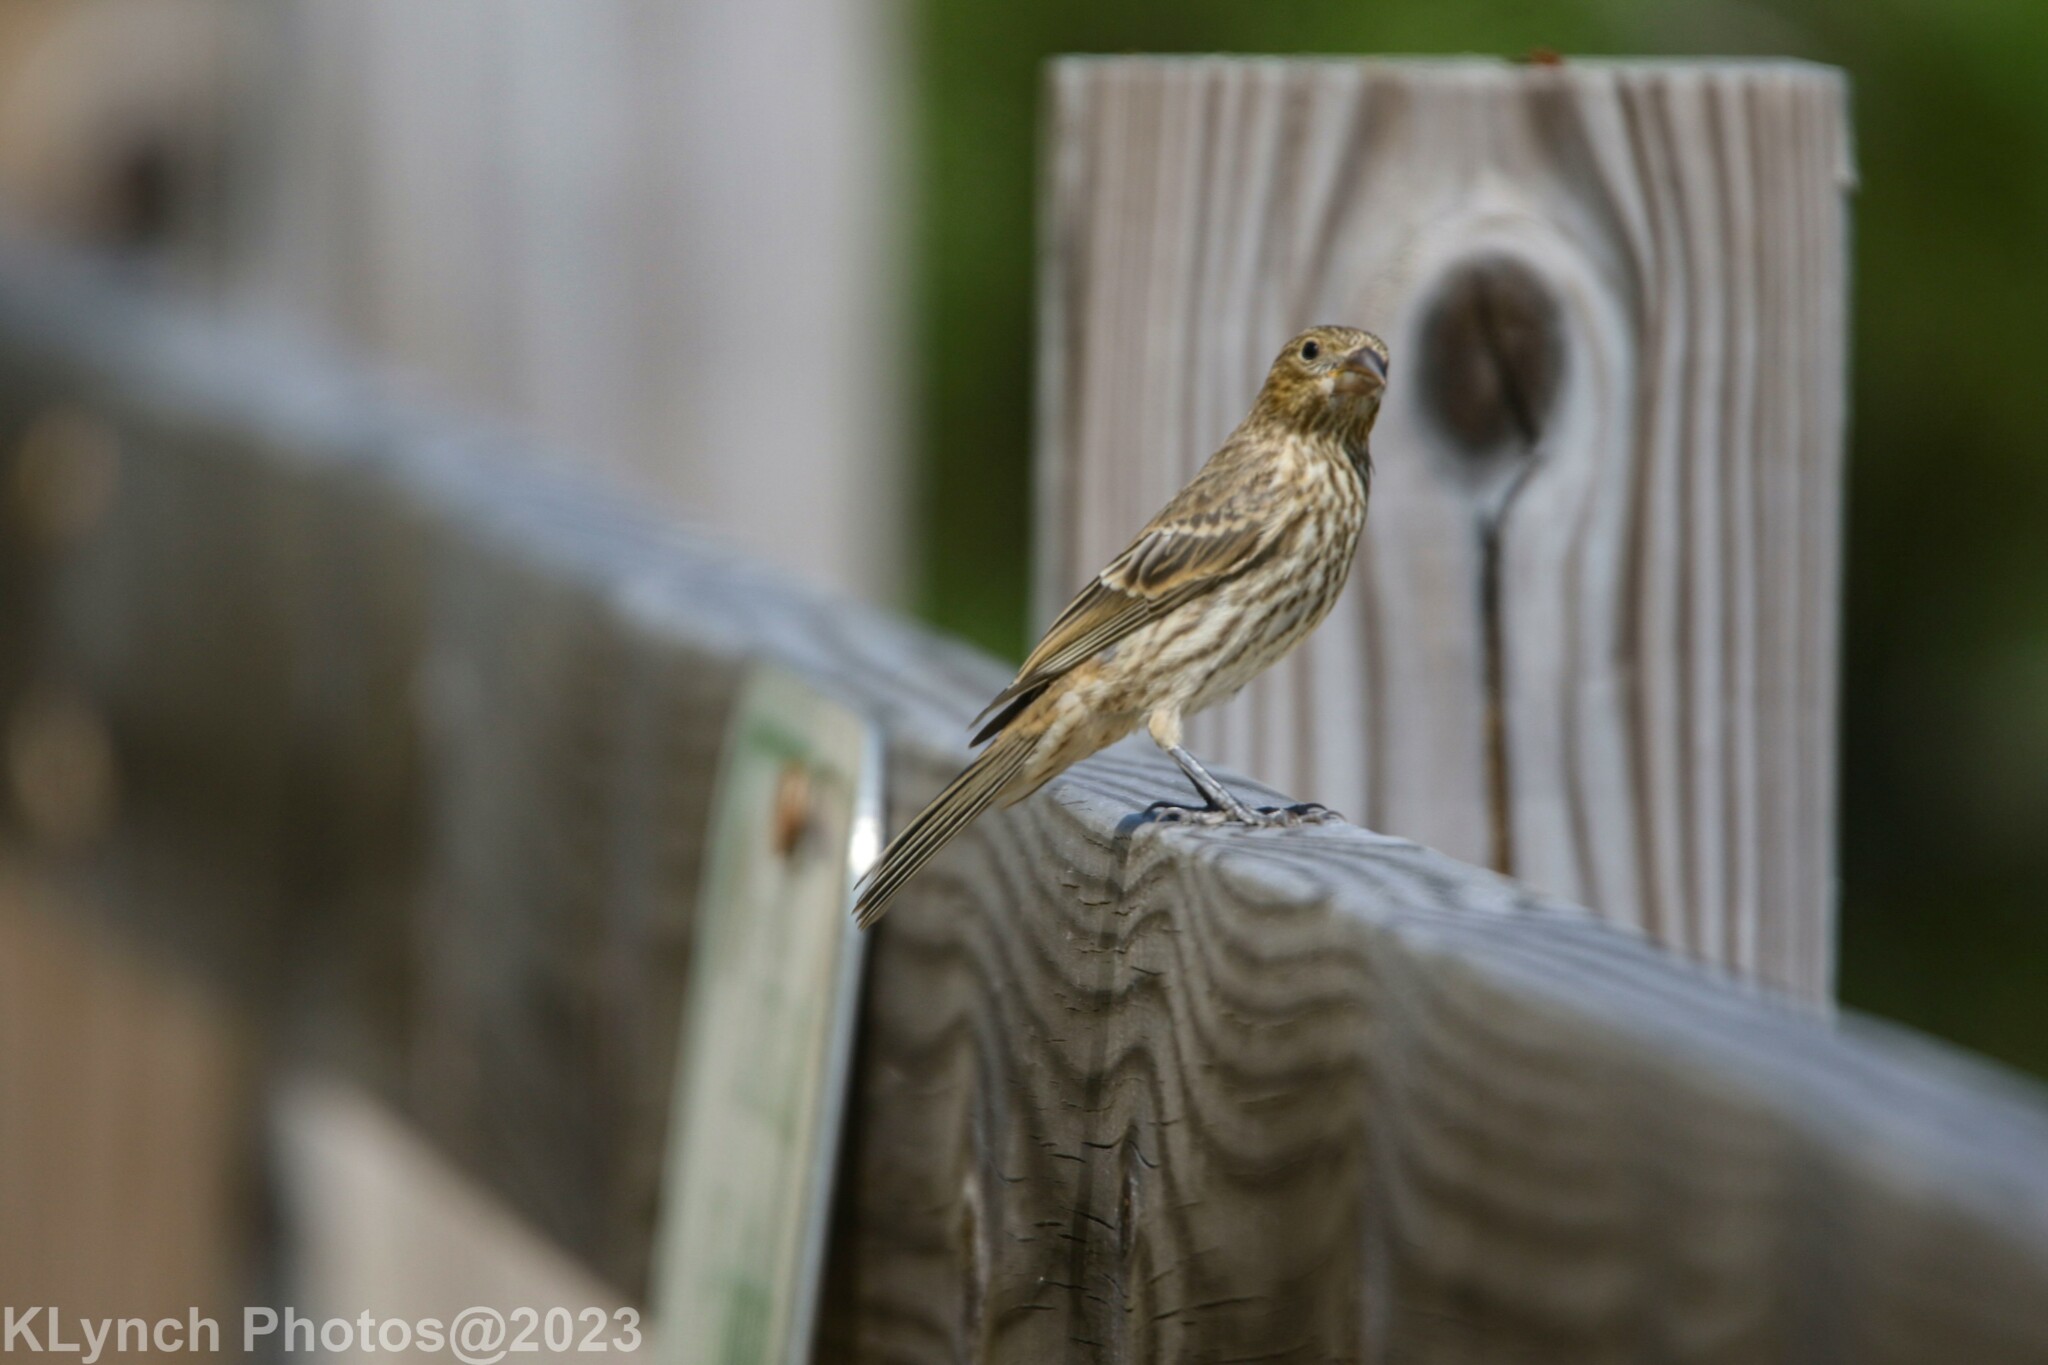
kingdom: Animalia
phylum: Chordata
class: Aves
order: Passeriformes
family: Fringillidae
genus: Haemorhous
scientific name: Haemorhous mexicanus
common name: House finch
